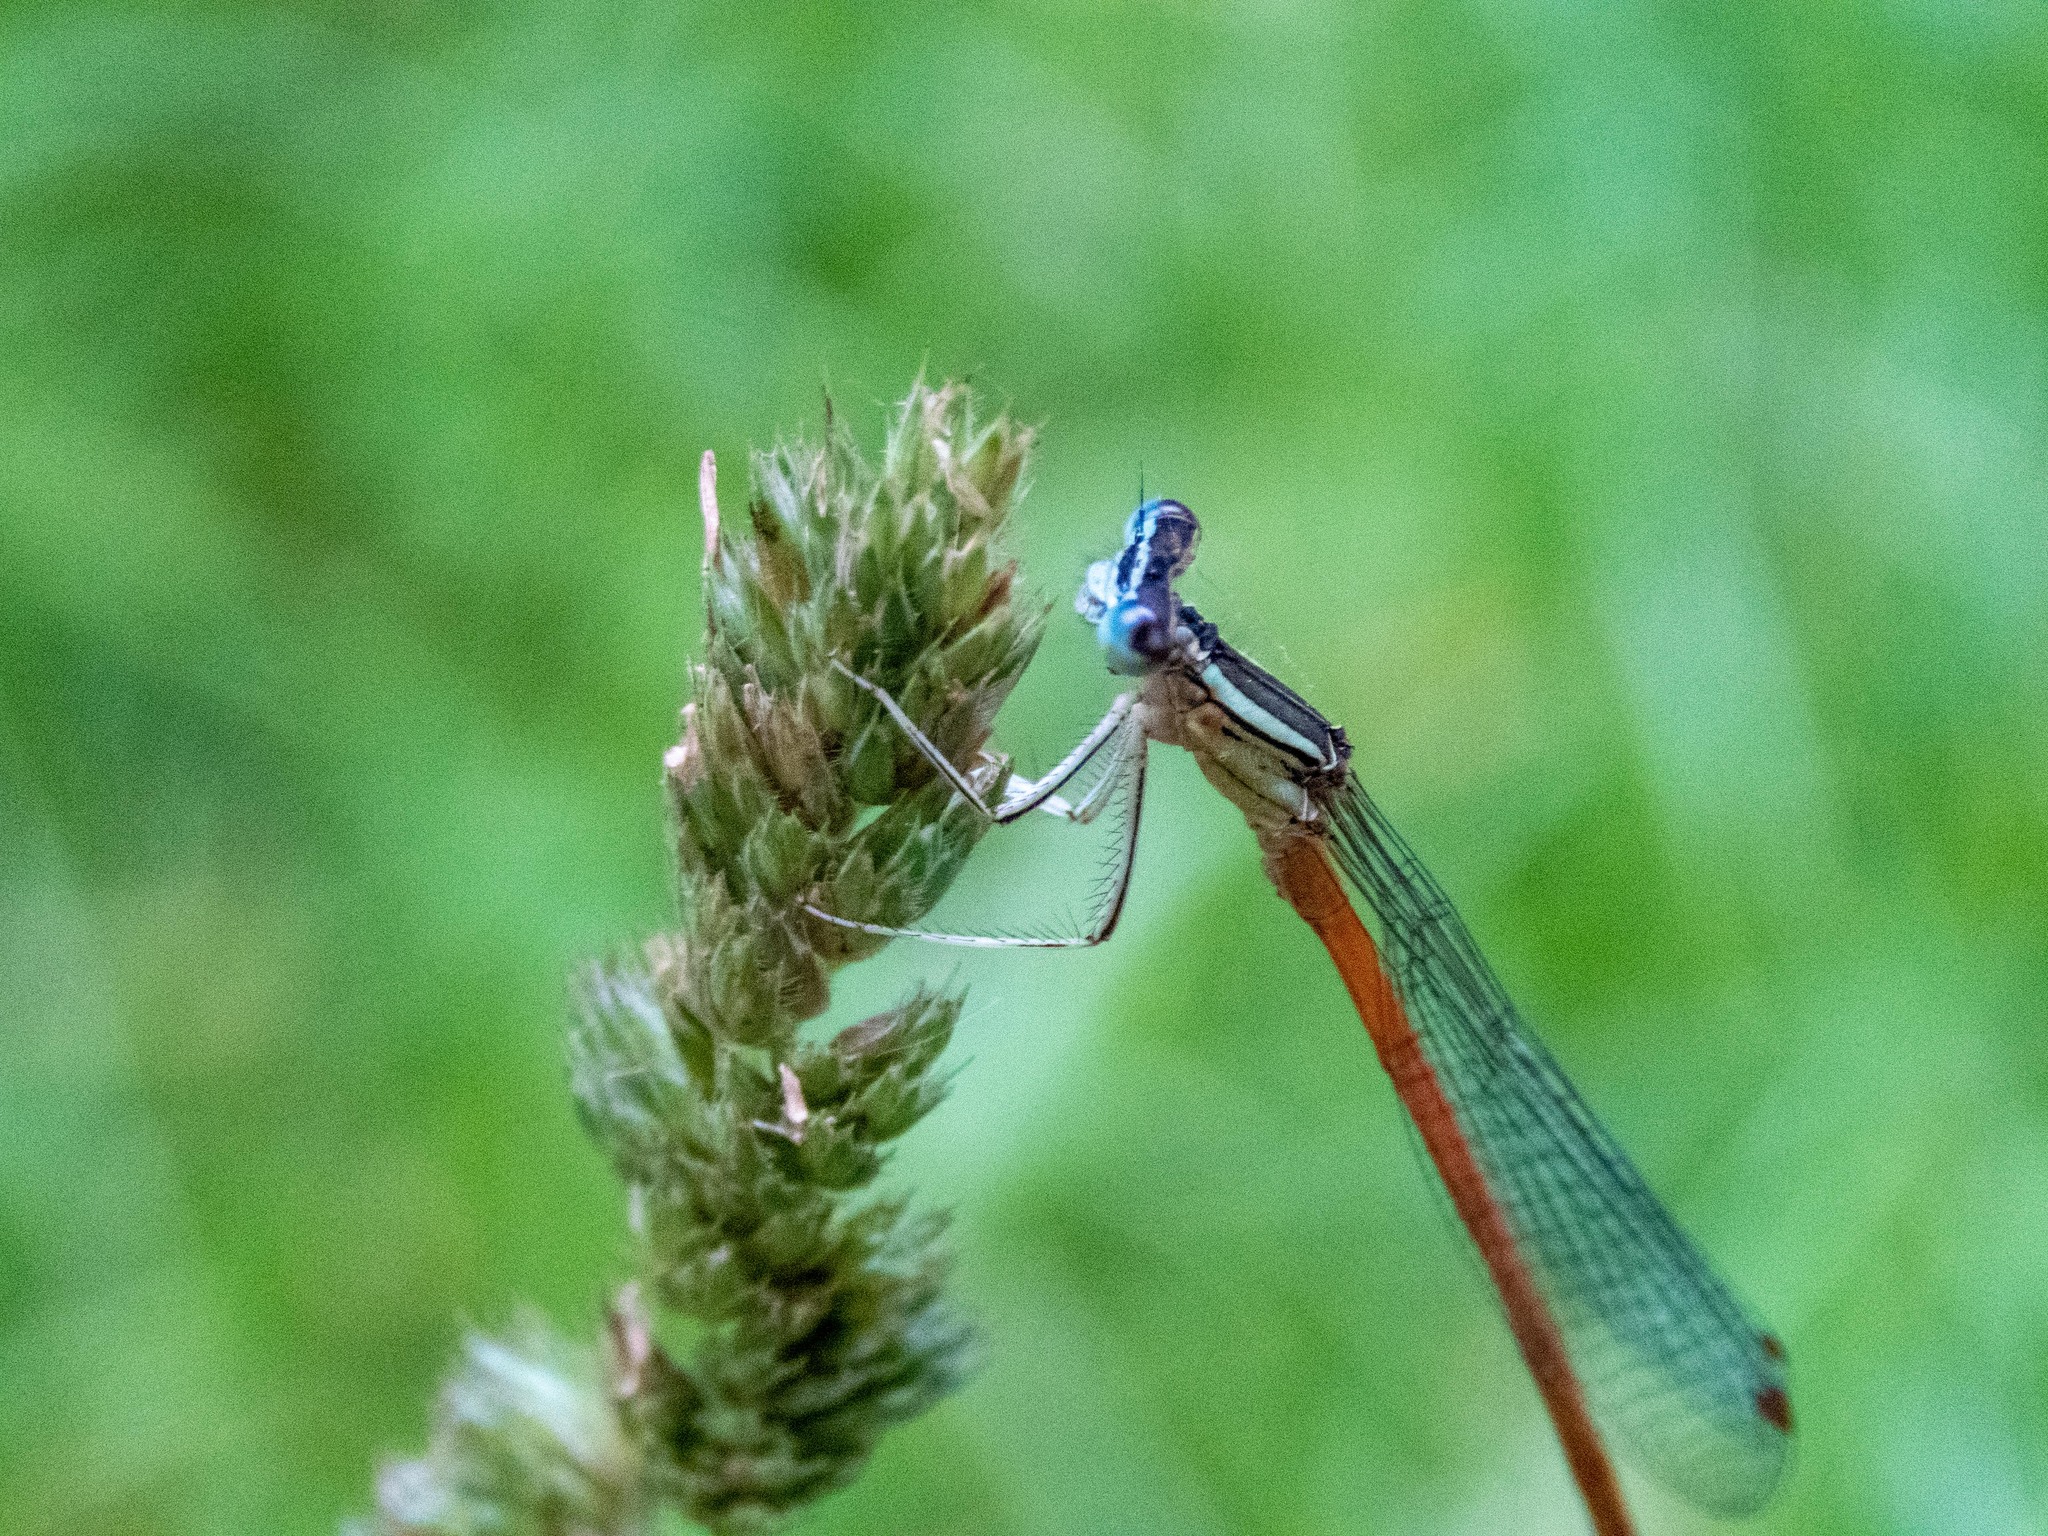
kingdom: Animalia
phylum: Arthropoda
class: Insecta
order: Odonata
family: Platycnemididae
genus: Platycnemis
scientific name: Platycnemis acutipennis
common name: Orange featherleg
